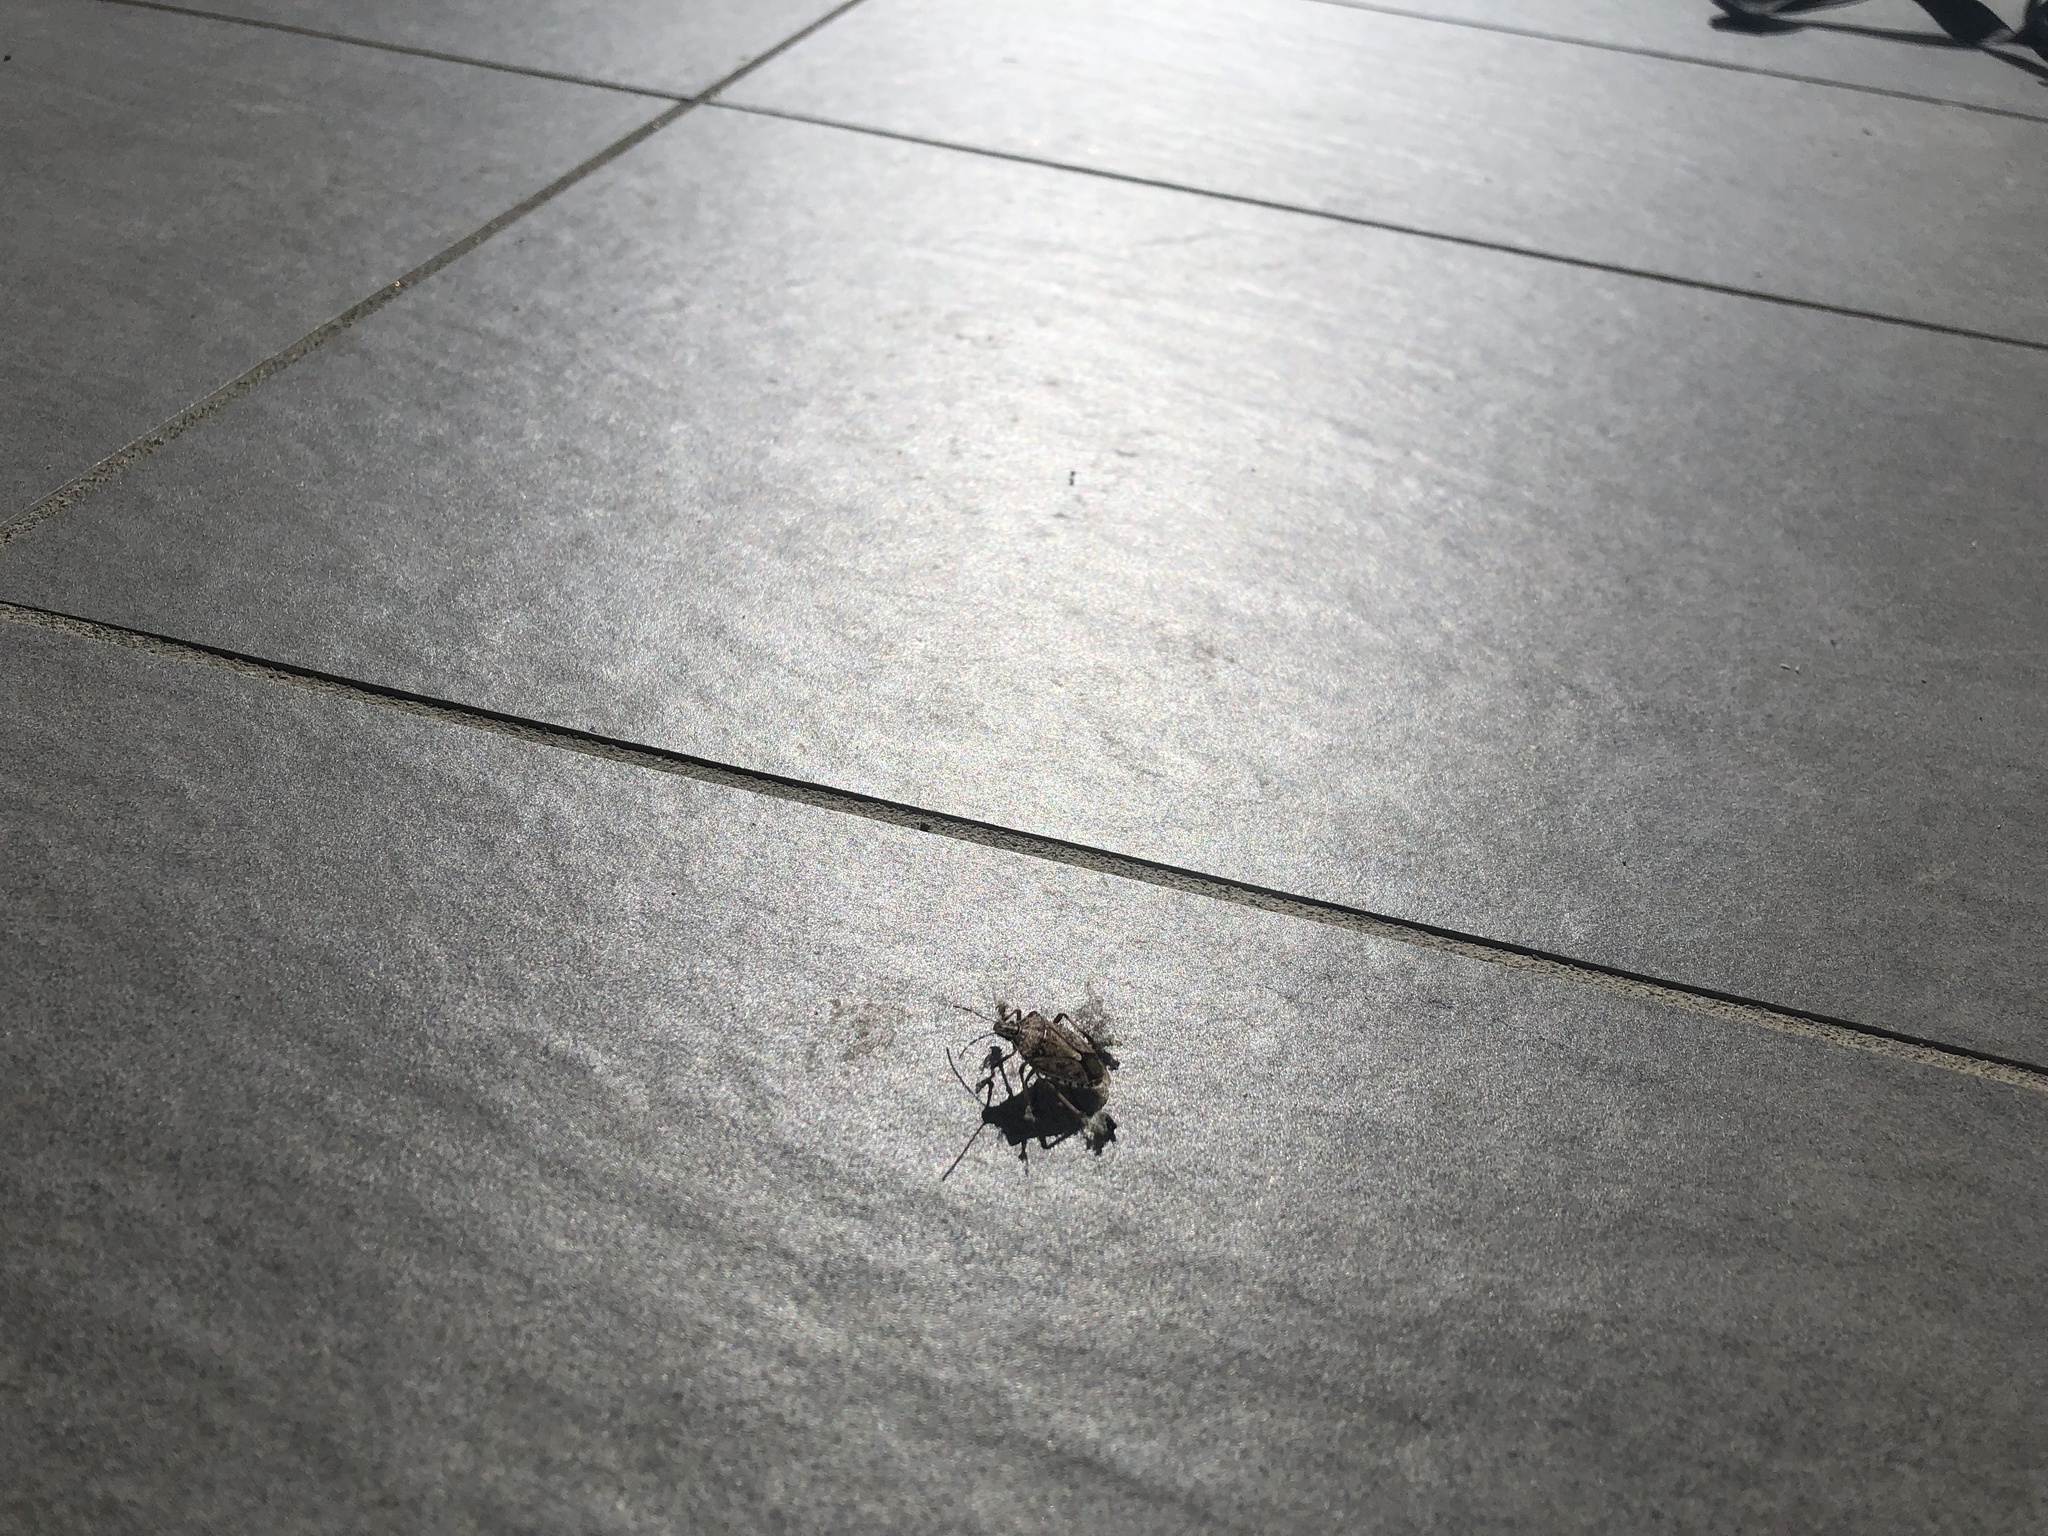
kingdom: Animalia
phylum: Arthropoda
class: Insecta
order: Hemiptera
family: Pentatomidae
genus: Halyomorpha
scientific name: Halyomorpha halys
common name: Brown marmorated stink bug
